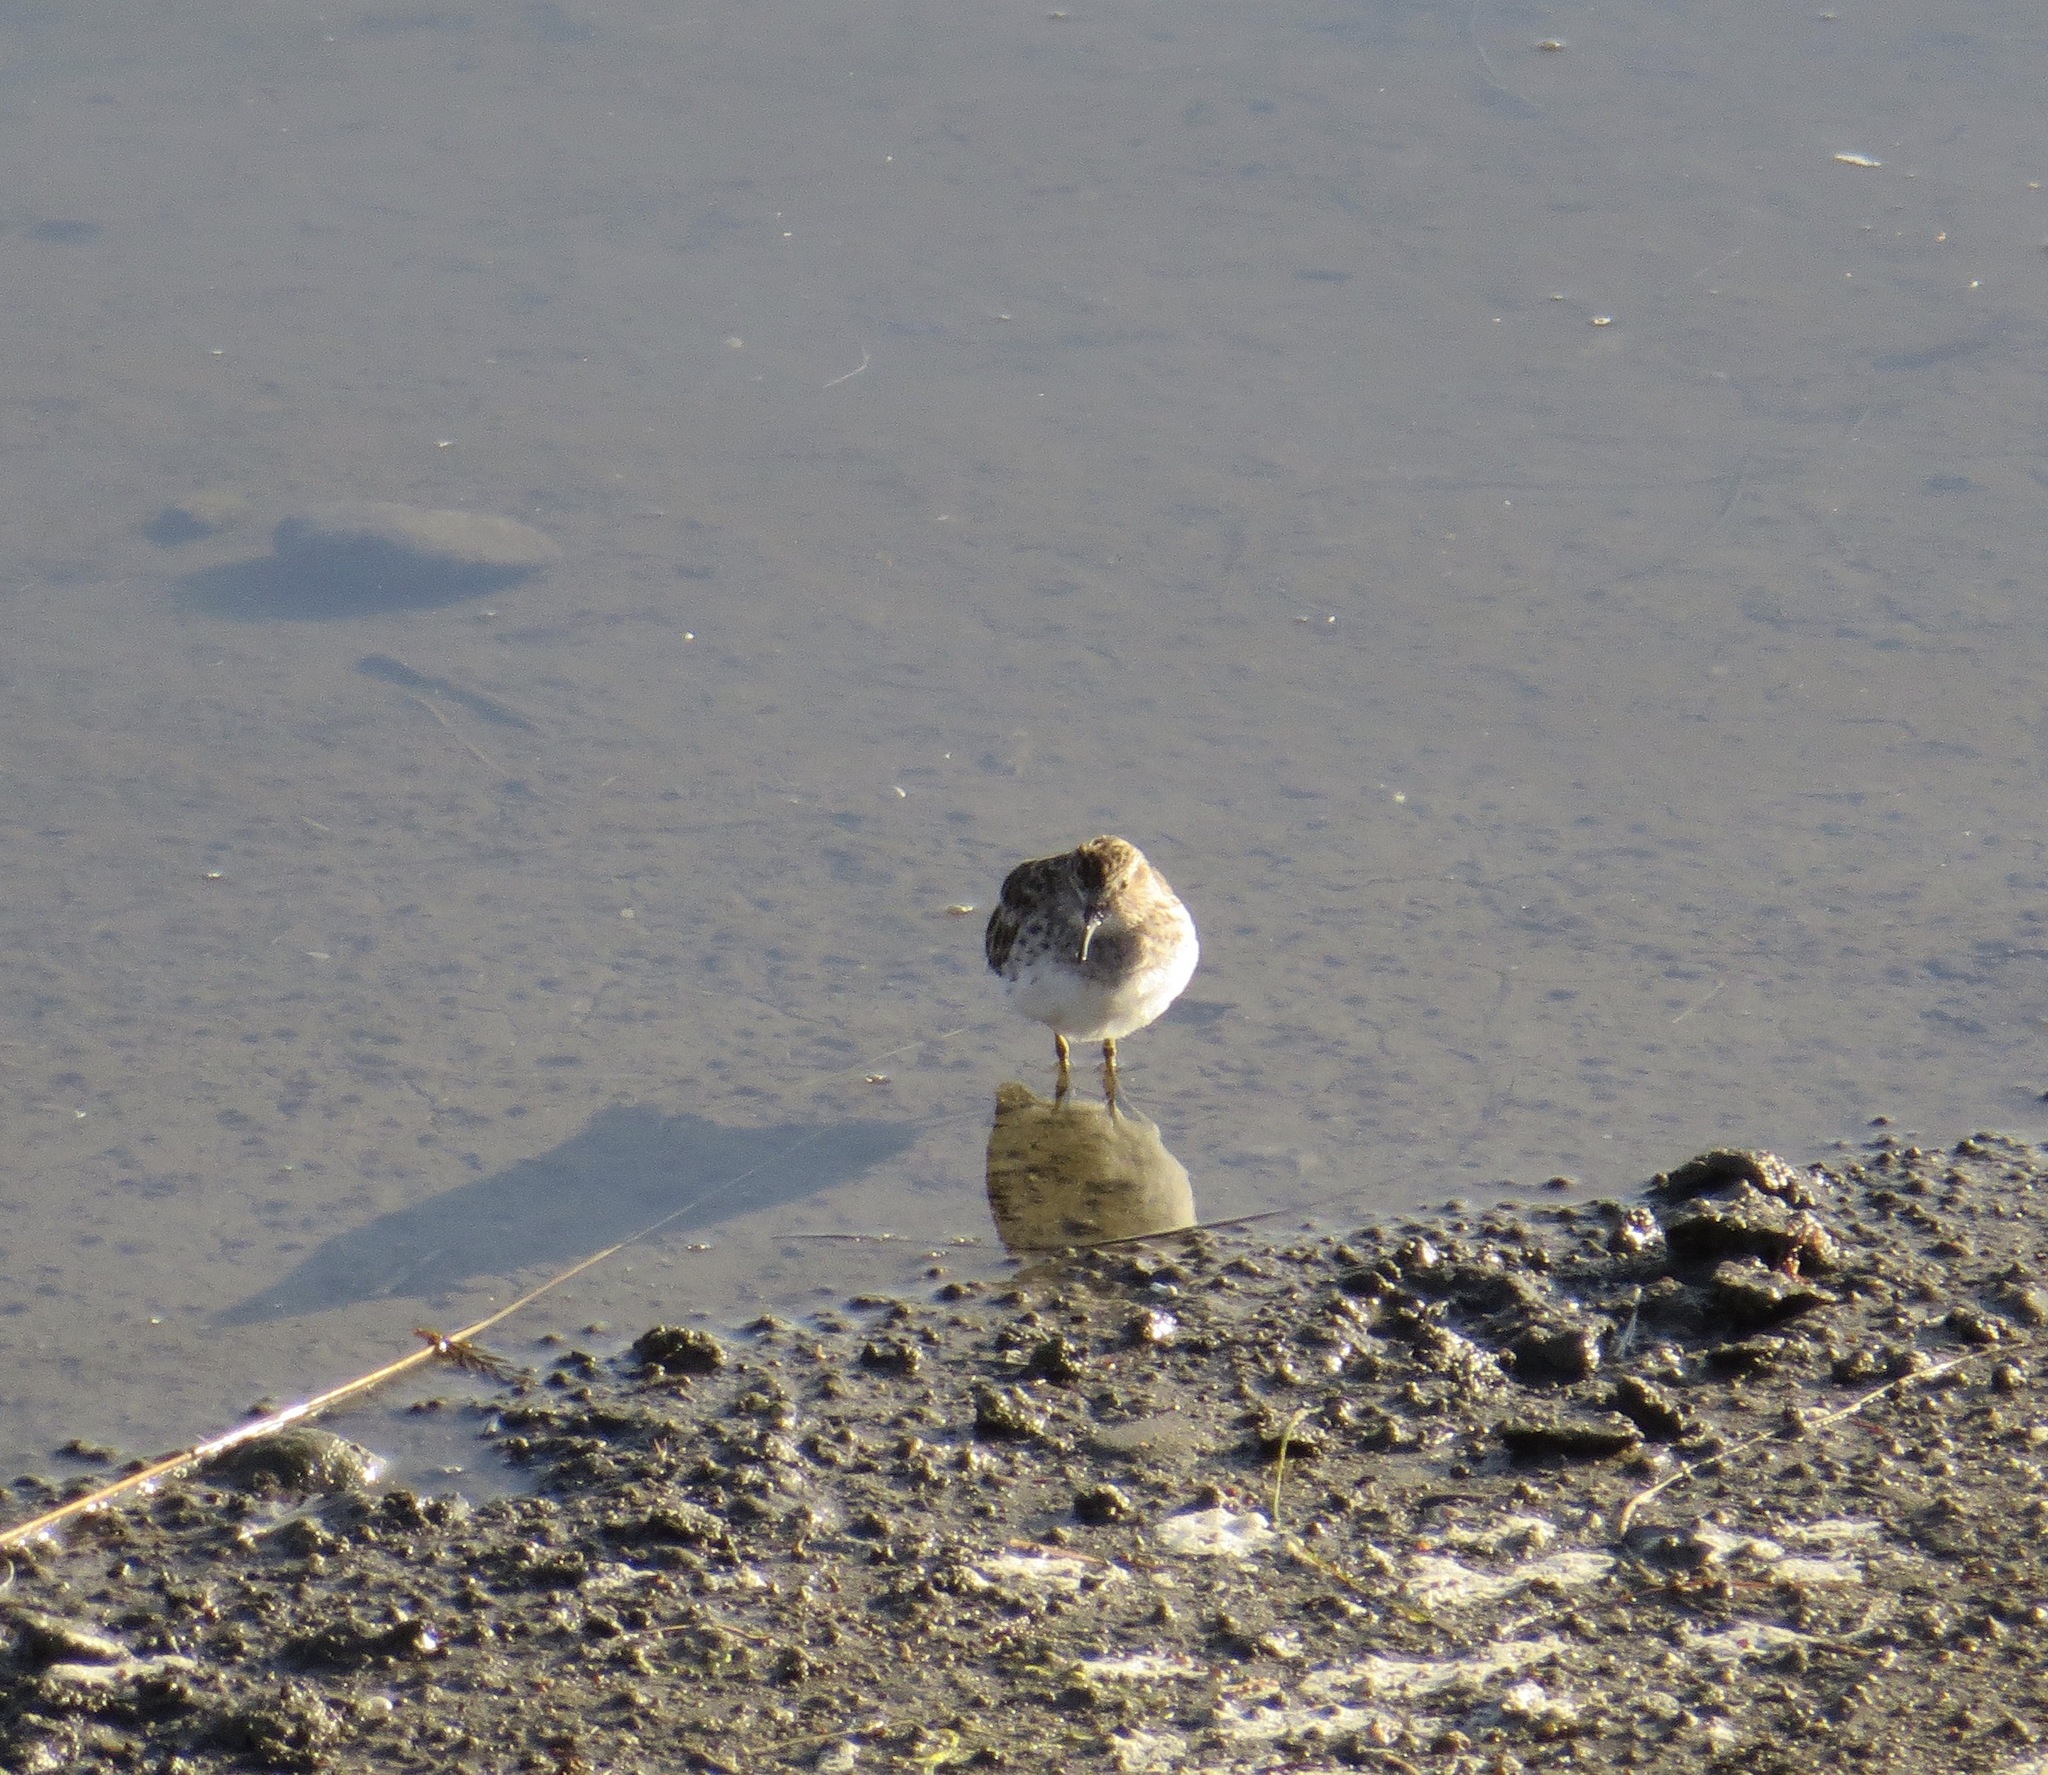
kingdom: Animalia
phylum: Chordata
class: Aves
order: Charadriiformes
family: Scolopacidae
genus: Calidris
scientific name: Calidris minutilla
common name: Least sandpiper
